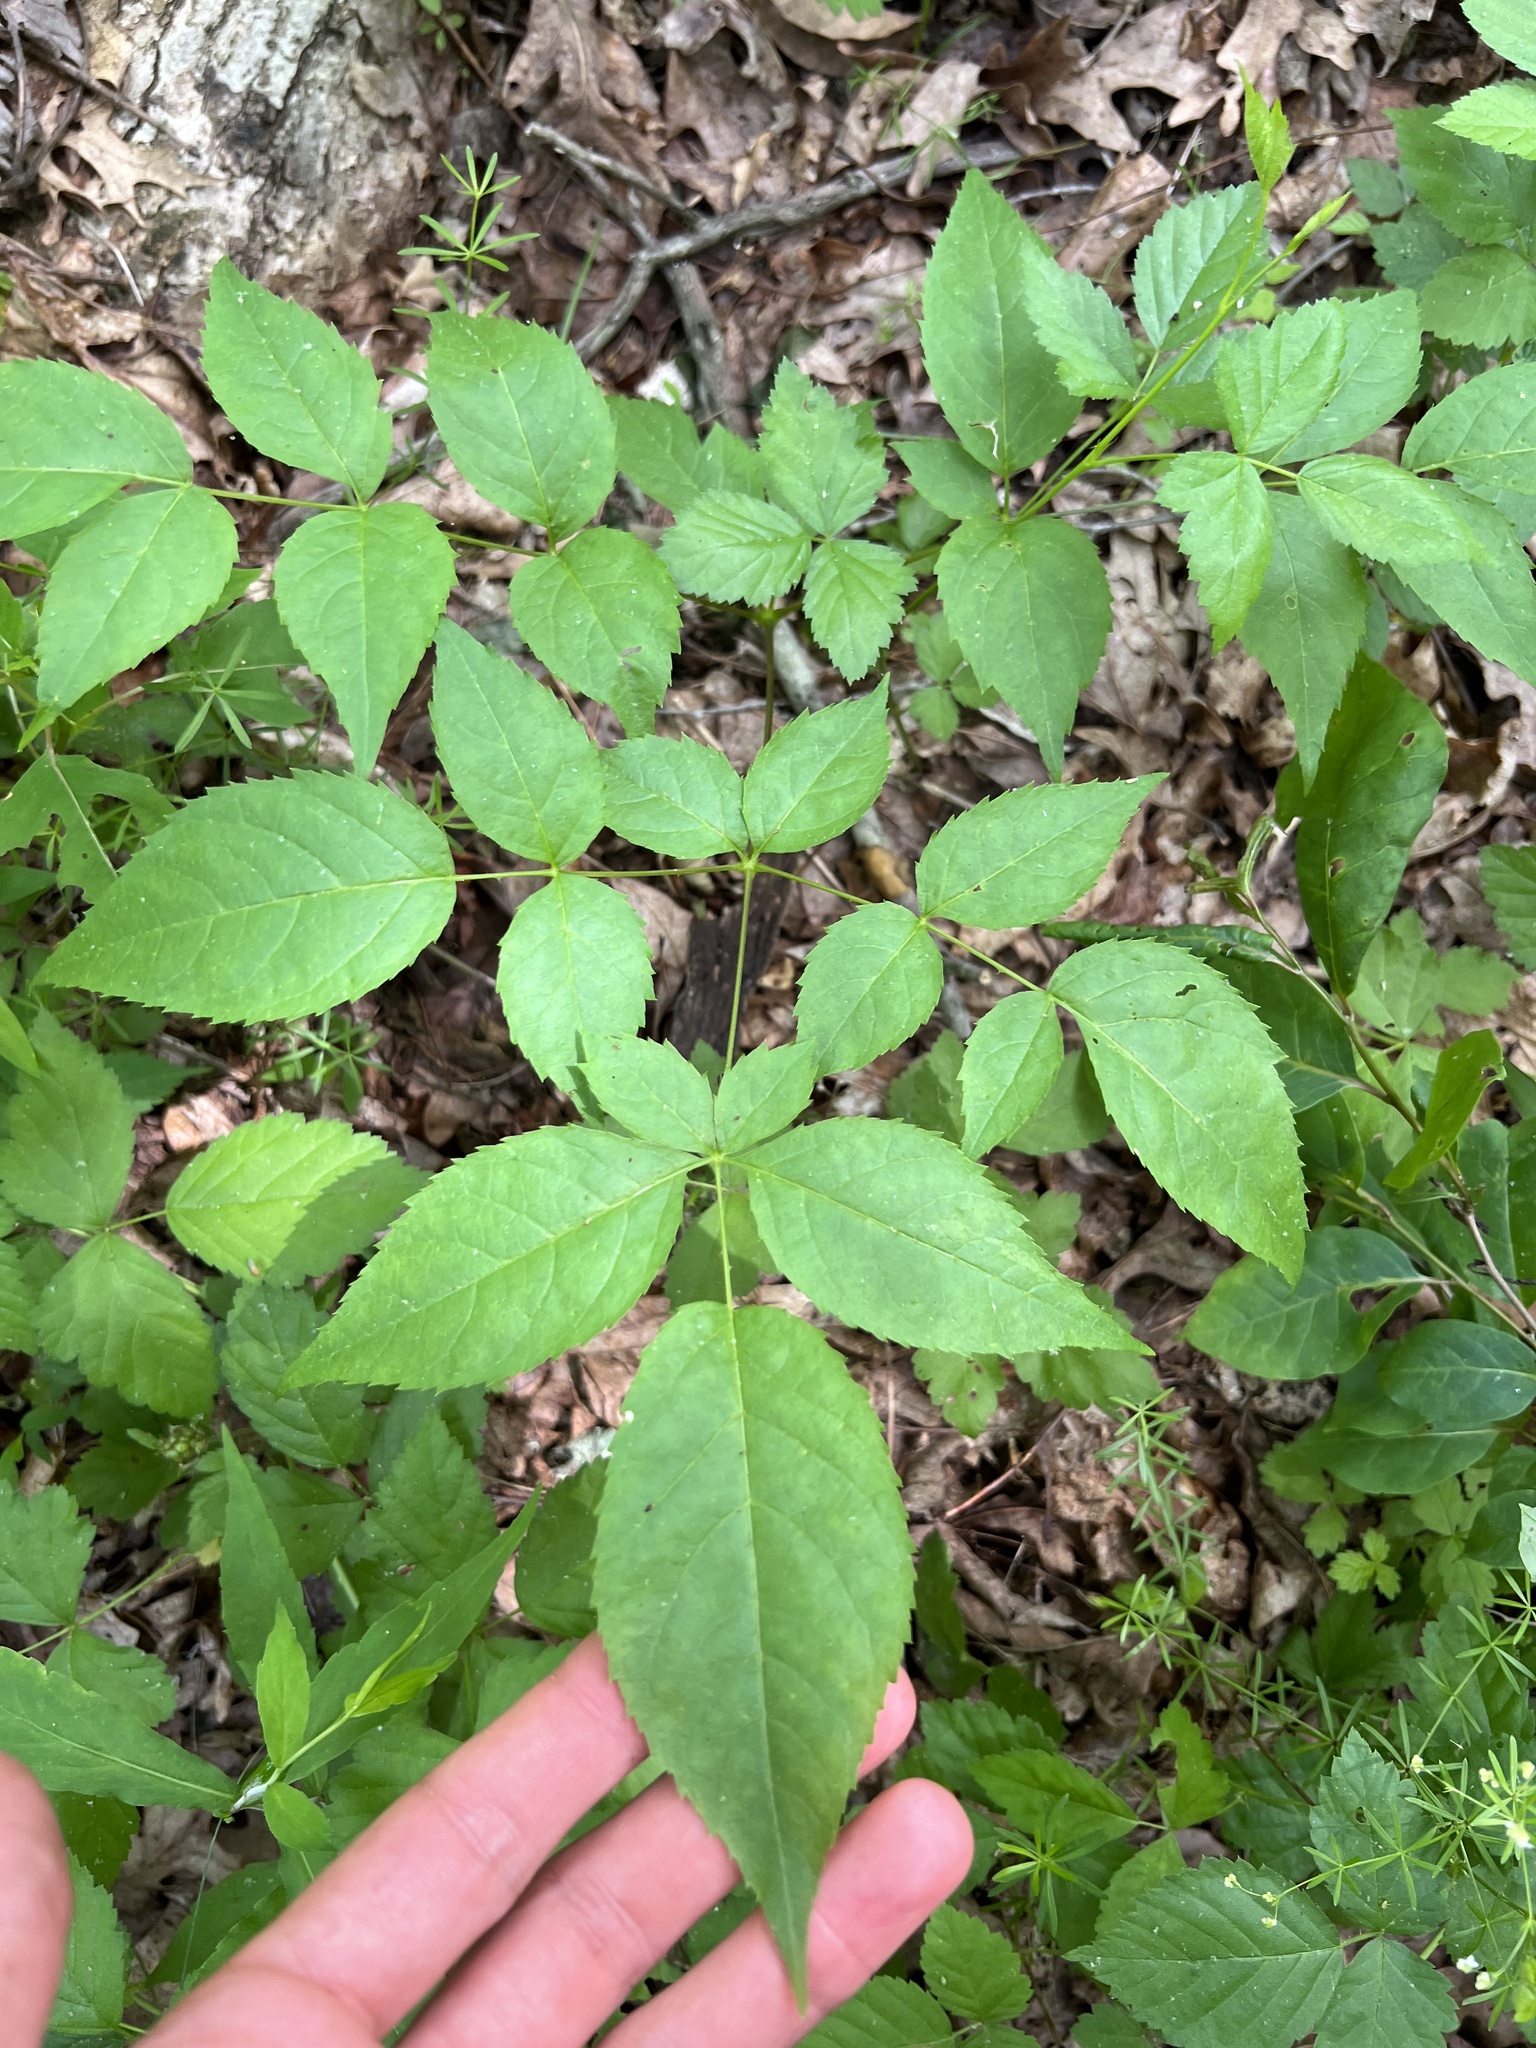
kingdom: Plantae
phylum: Tracheophyta
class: Magnoliopsida
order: Apiales
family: Araliaceae
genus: Aralia
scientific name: Aralia spinosa
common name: Hercules'-club
